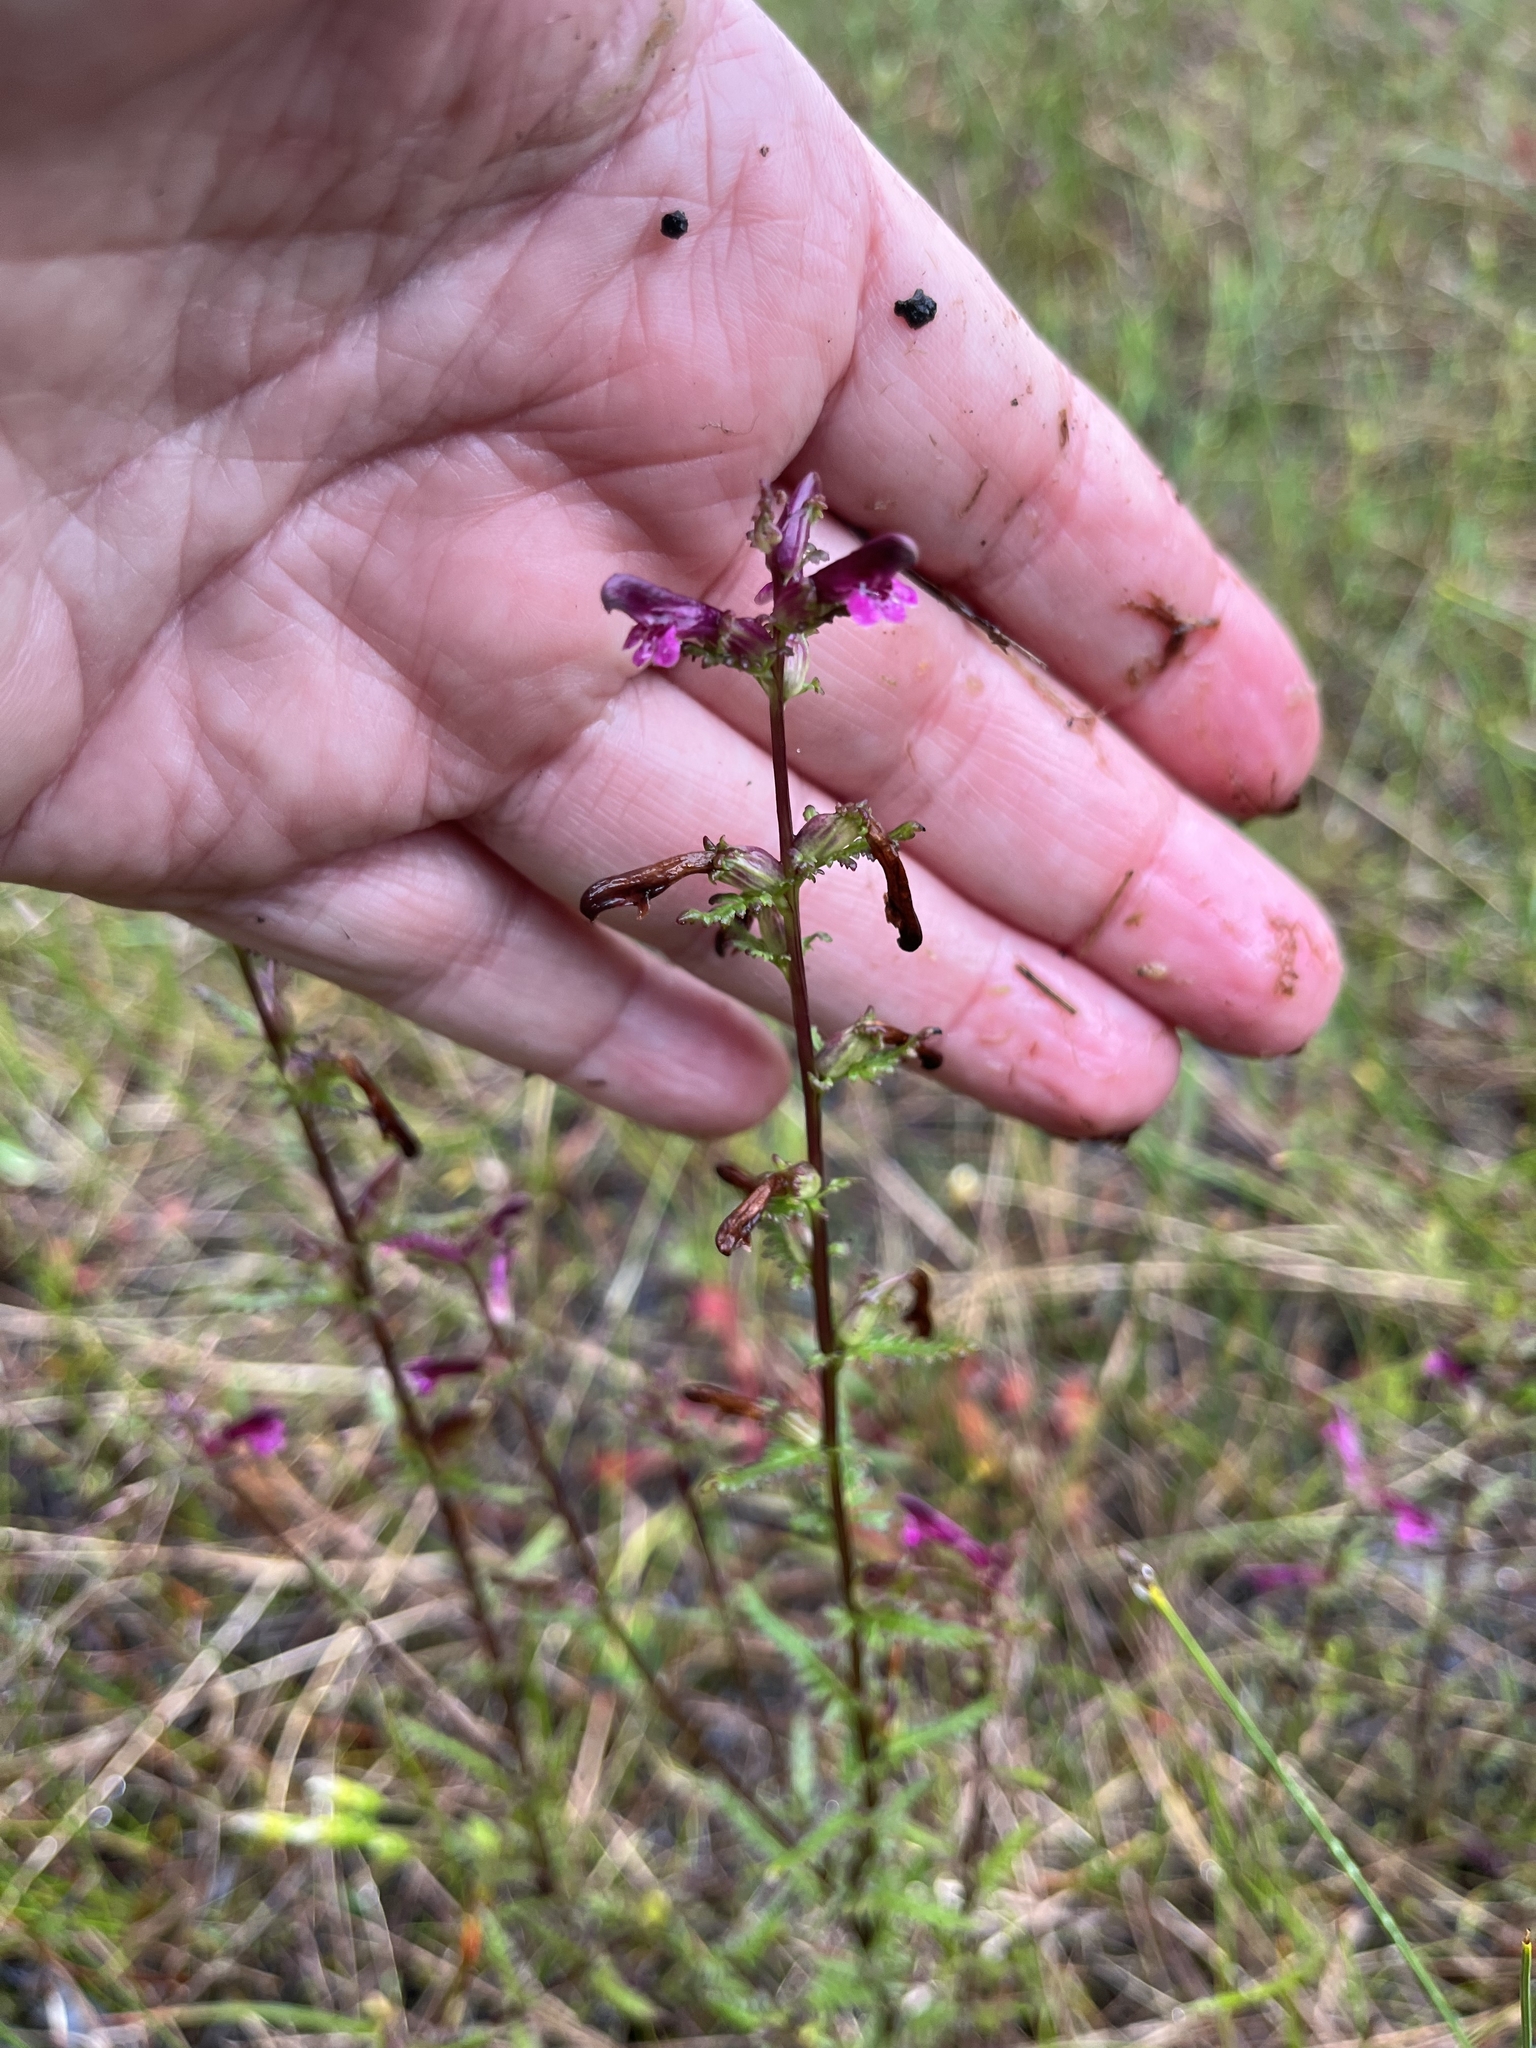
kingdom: Plantae
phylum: Tracheophyta
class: Magnoliopsida
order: Lamiales
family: Orobanchaceae
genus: Pedicularis
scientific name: Pedicularis parviflora
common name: Muskeg lousewort
